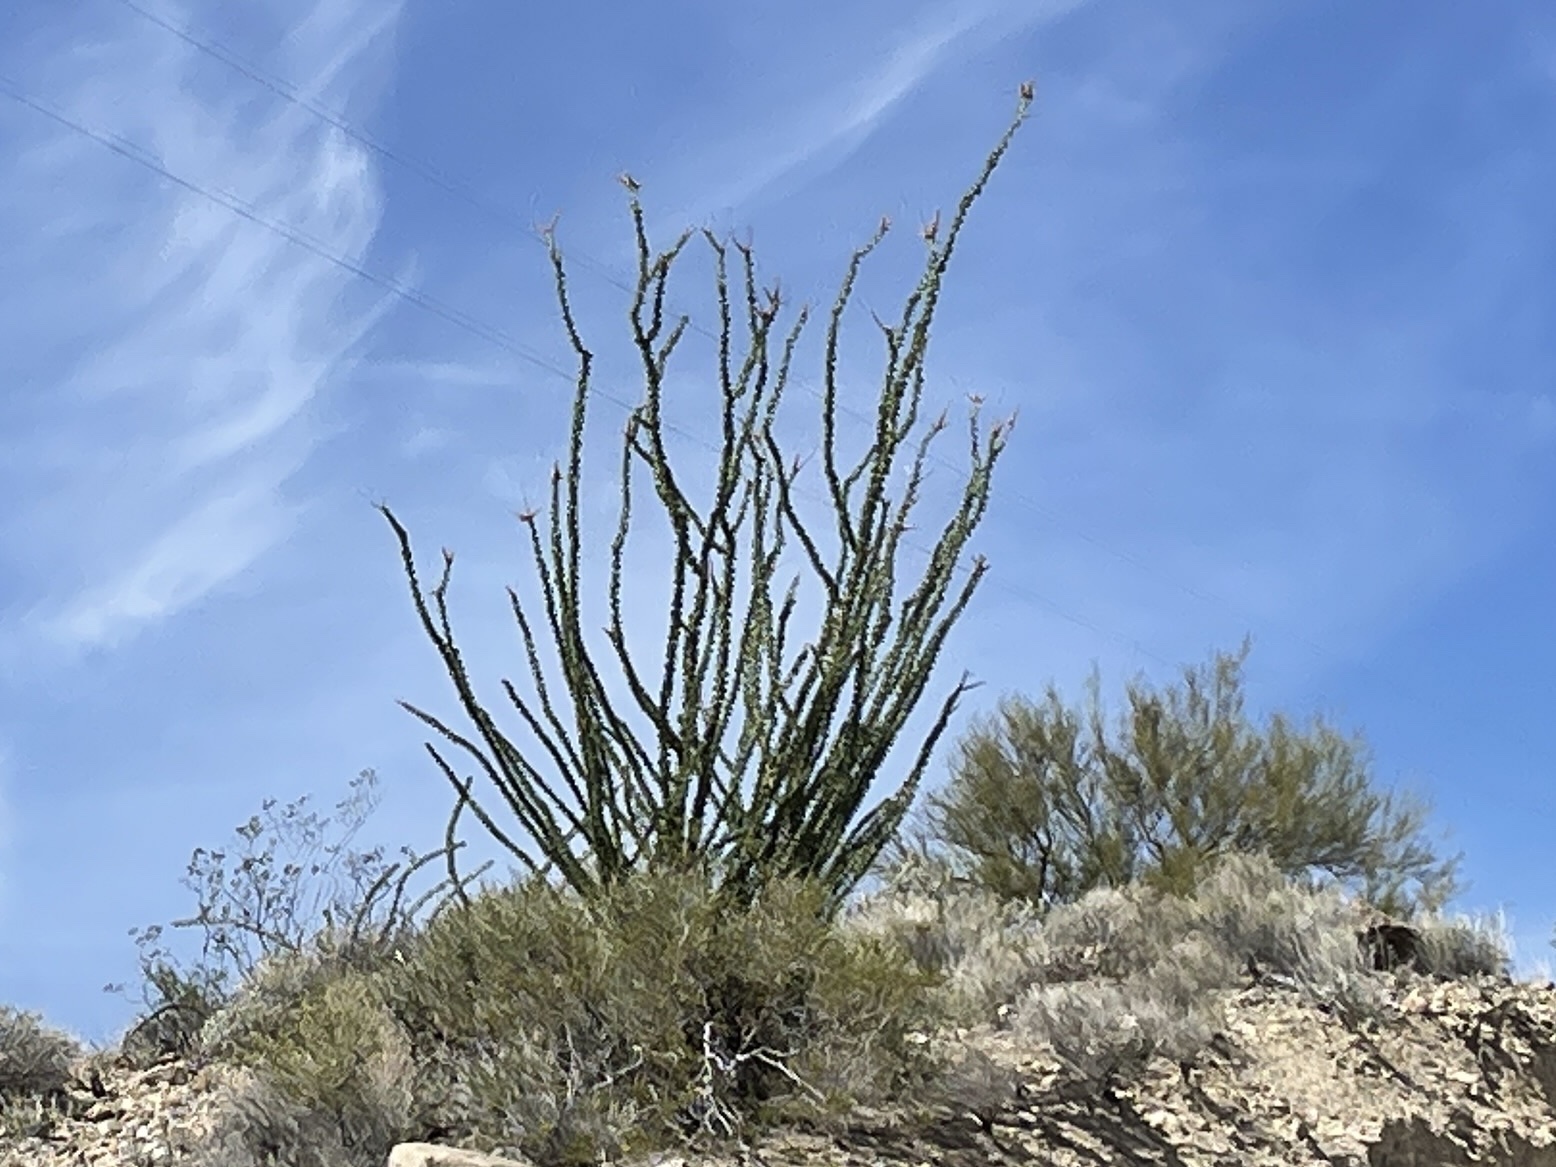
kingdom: Plantae
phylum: Tracheophyta
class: Magnoliopsida
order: Ericales
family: Fouquieriaceae
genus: Fouquieria
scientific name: Fouquieria splendens
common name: Vine-cactus
